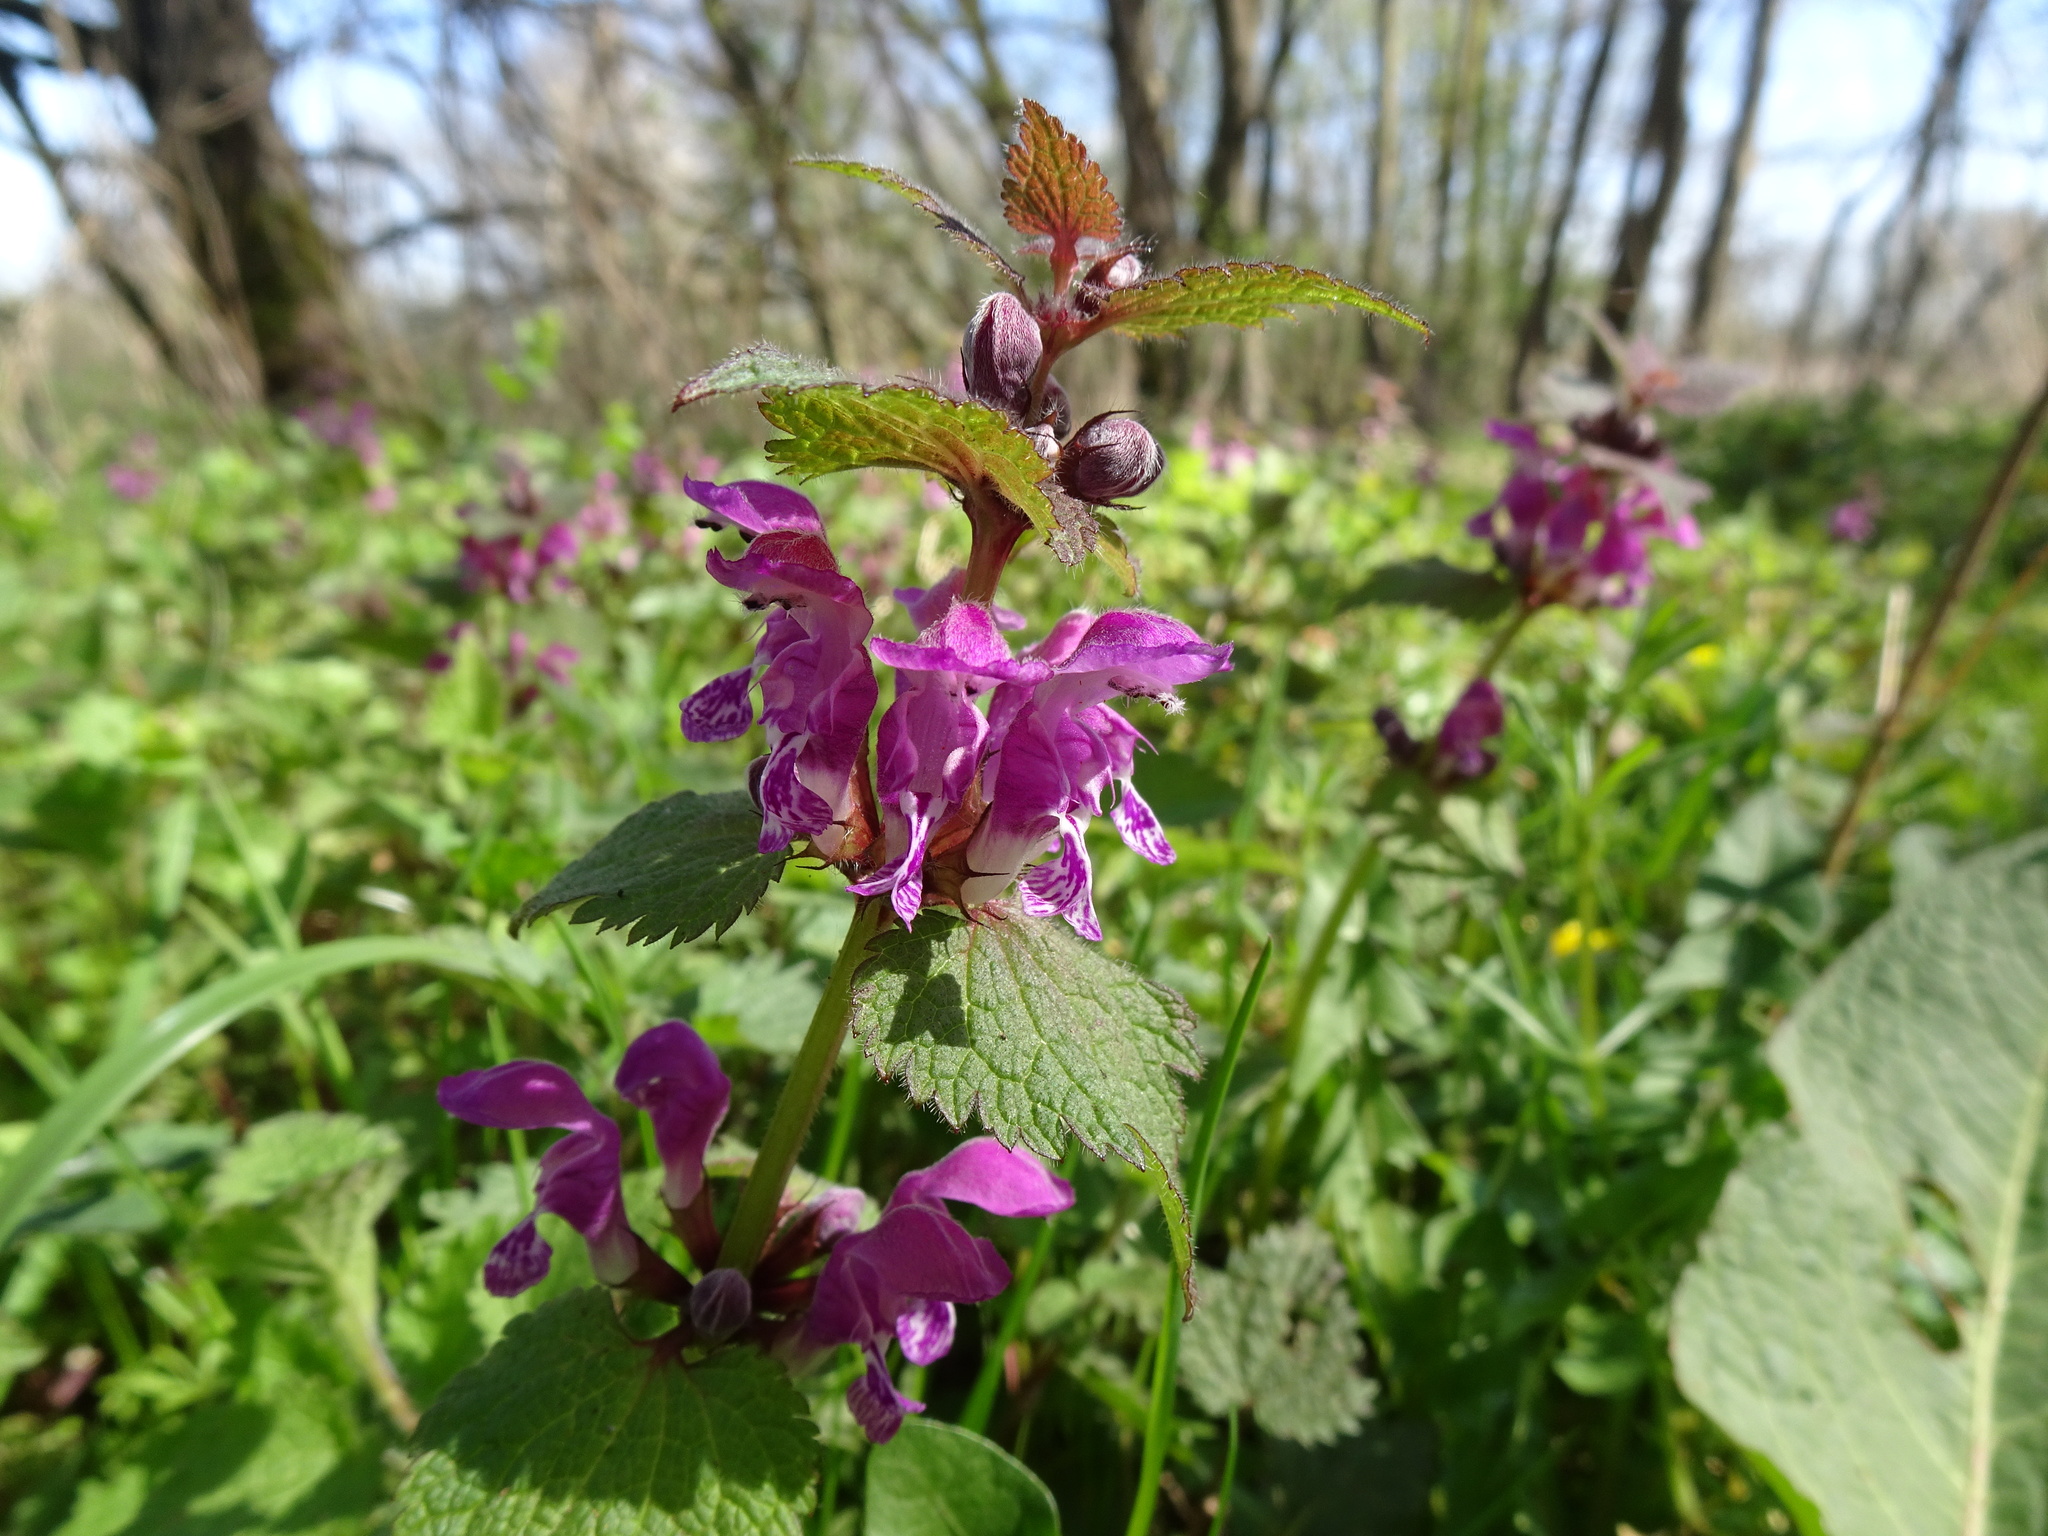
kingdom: Plantae
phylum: Tracheophyta
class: Magnoliopsida
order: Lamiales
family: Lamiaceae
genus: Lamium
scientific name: Lamium maculatum
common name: Spotted dead-nettle
